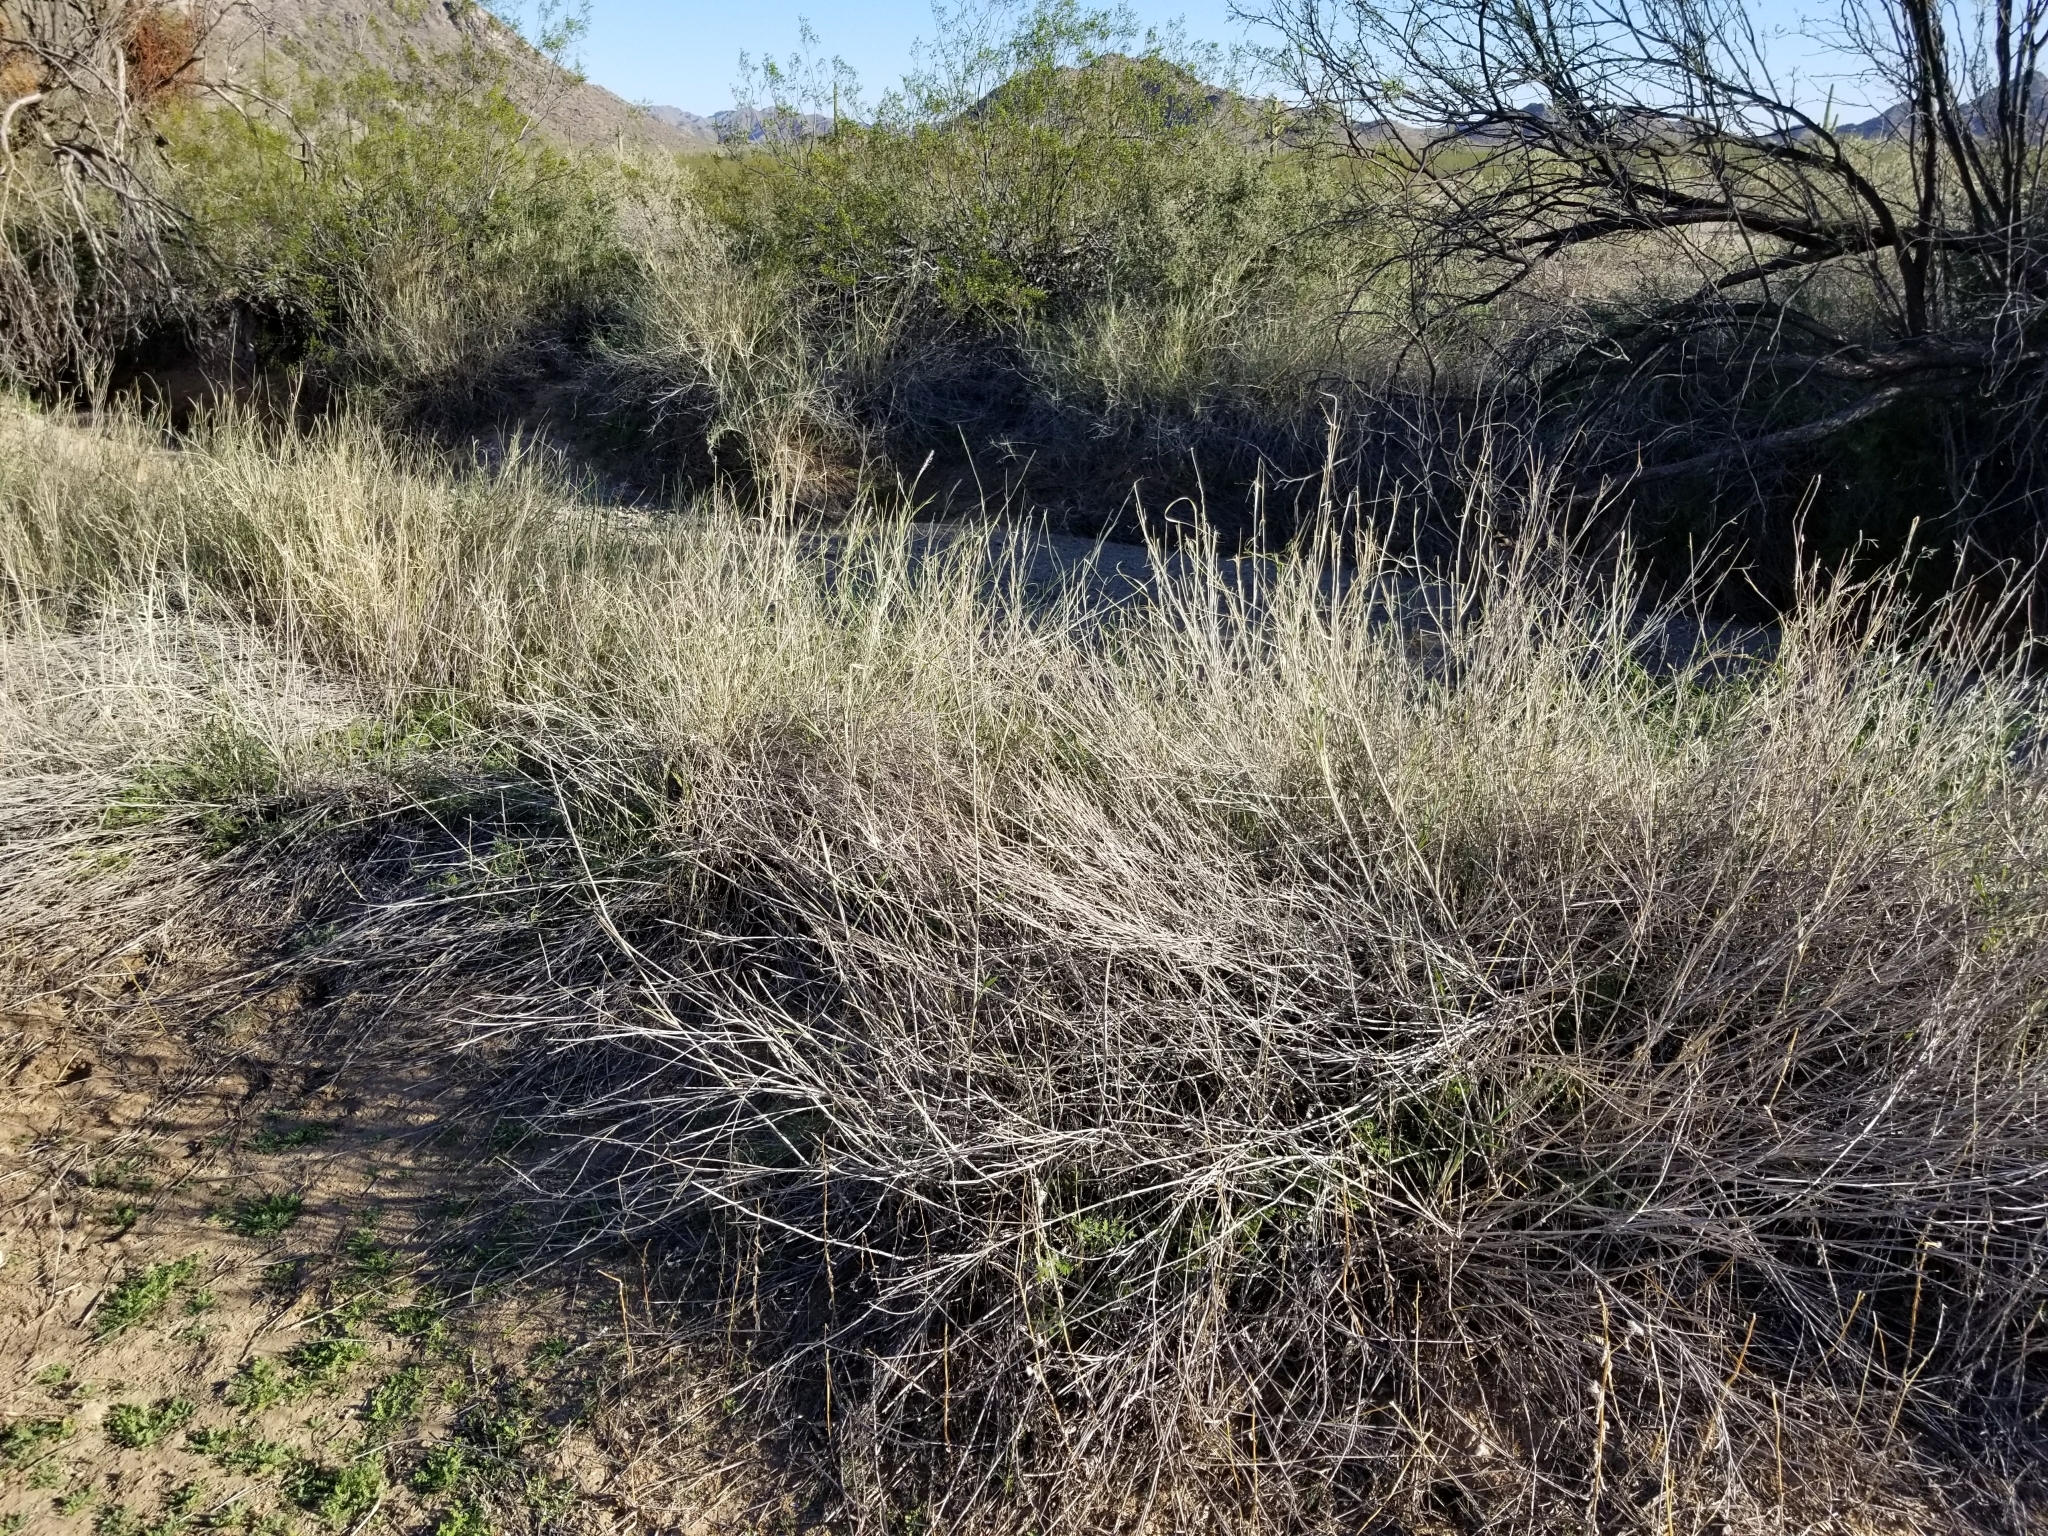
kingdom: Plantae
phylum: Tracheophyta
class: Liliopsida
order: Poales
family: Poaceae
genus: Hilaria
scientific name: Hilaria rigida
